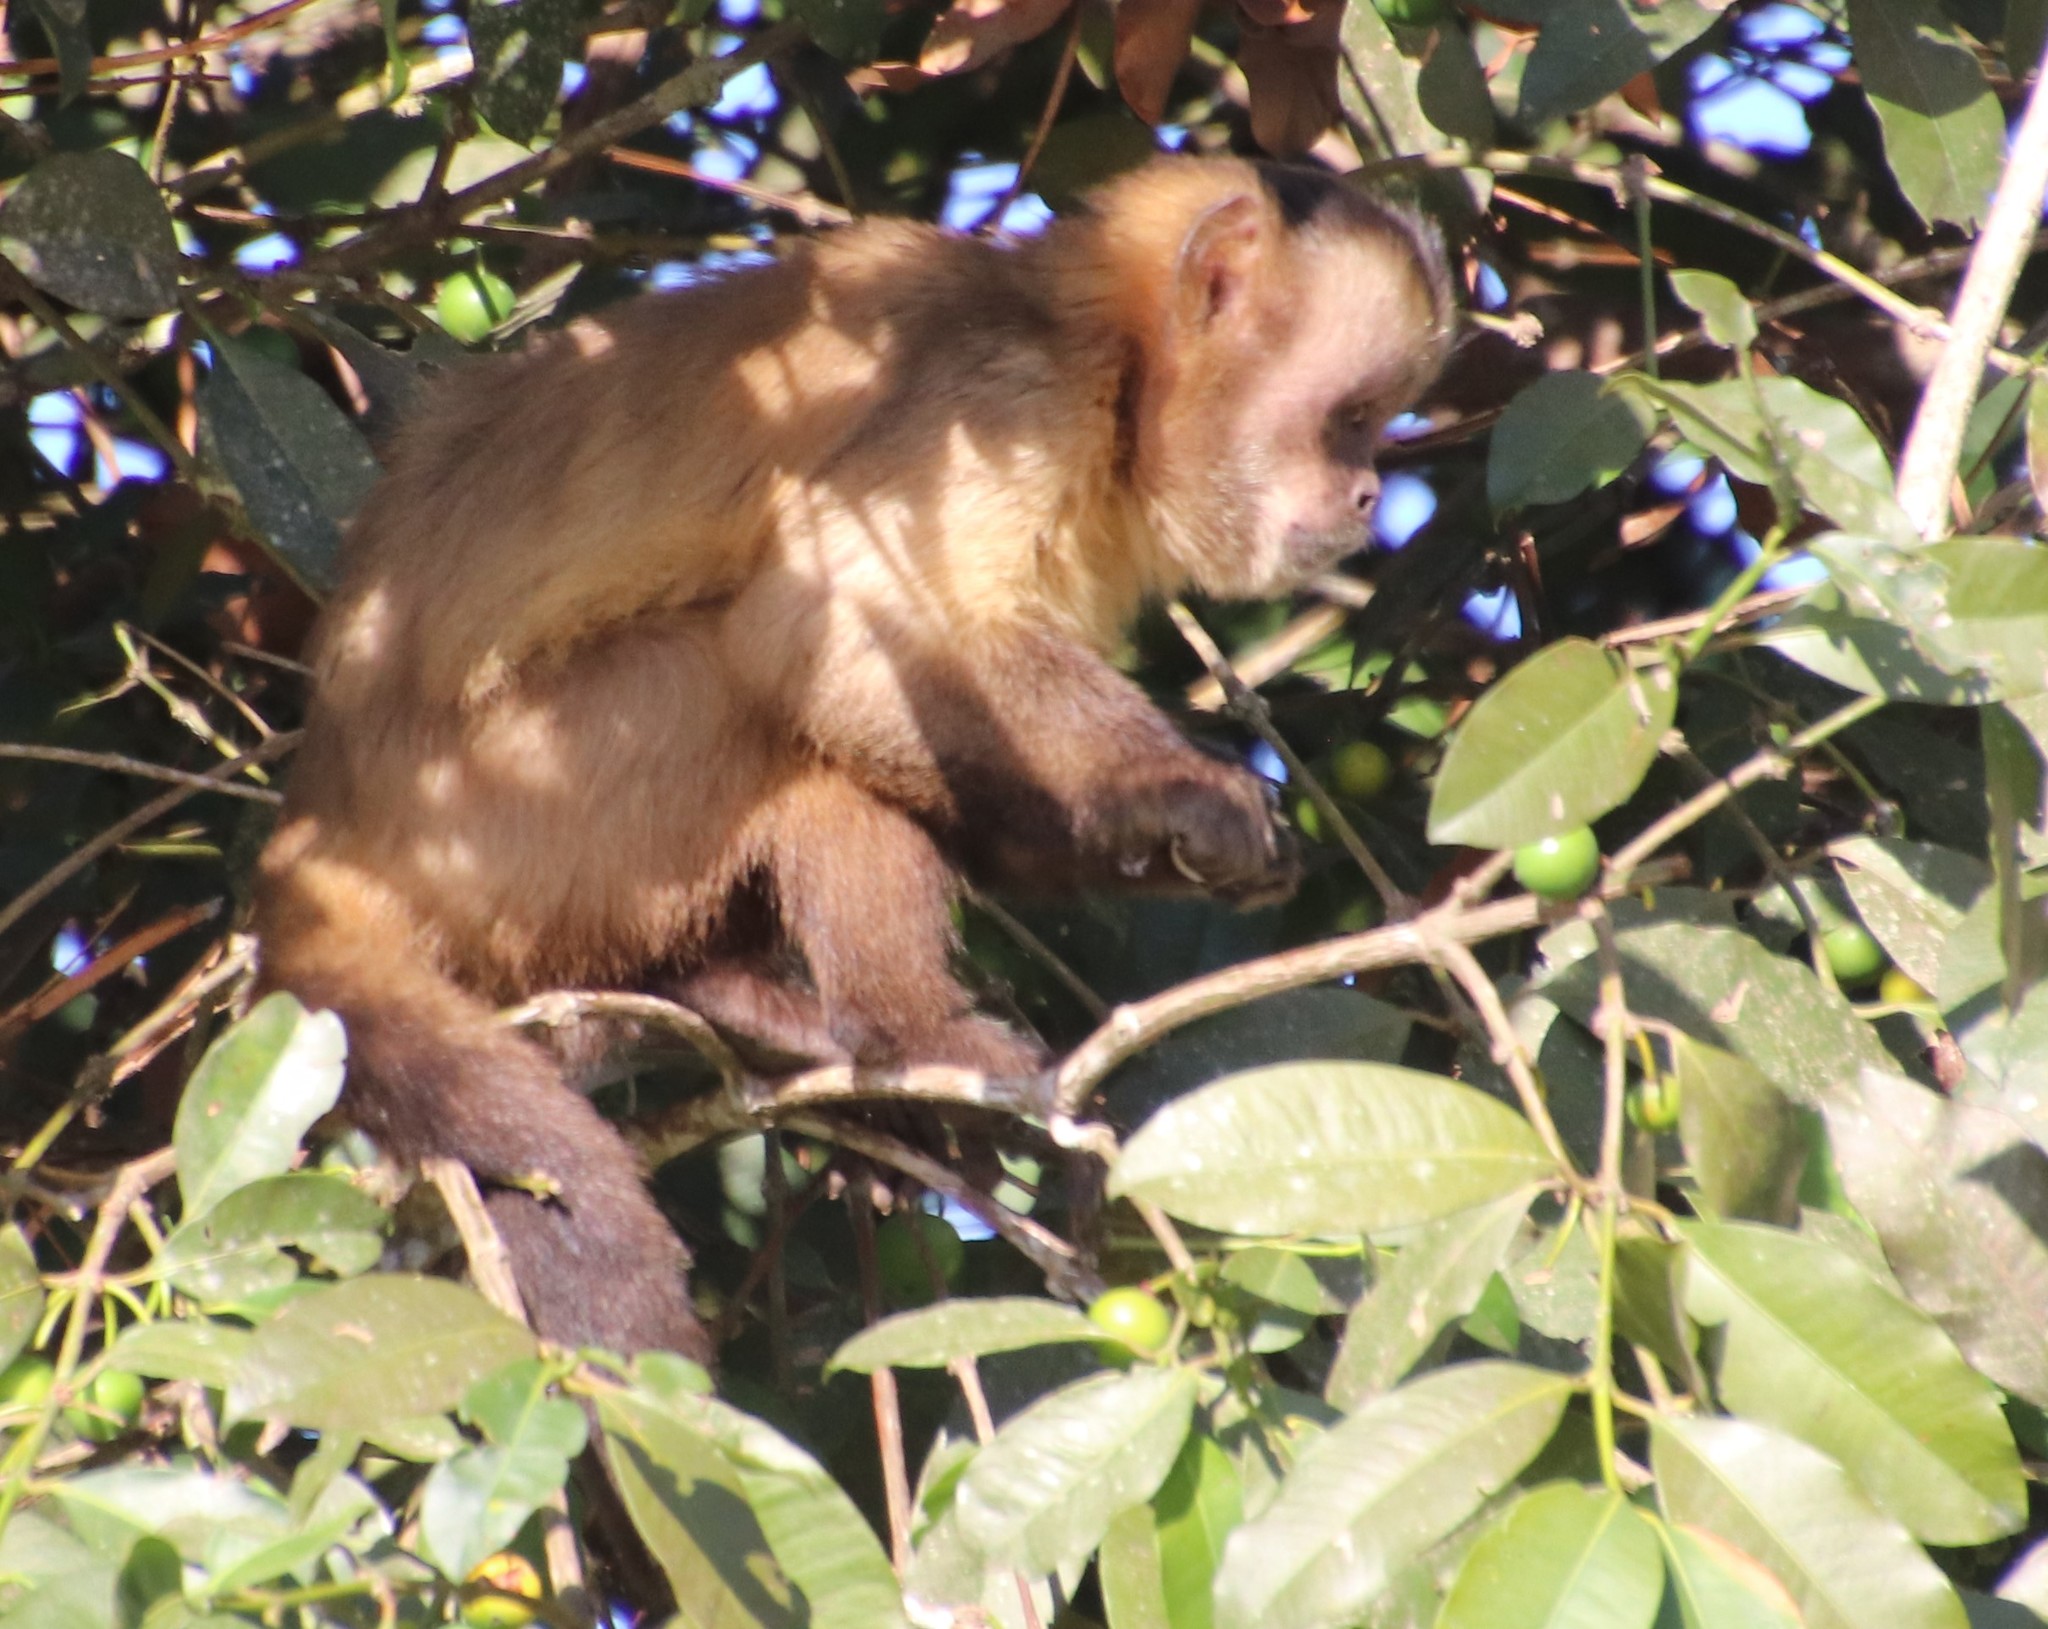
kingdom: Animalia
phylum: Chordata
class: Mammalia
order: Primates
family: Cebidae
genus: Sapajus
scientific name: Sapajus libidinosus
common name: Bearded capuchin
